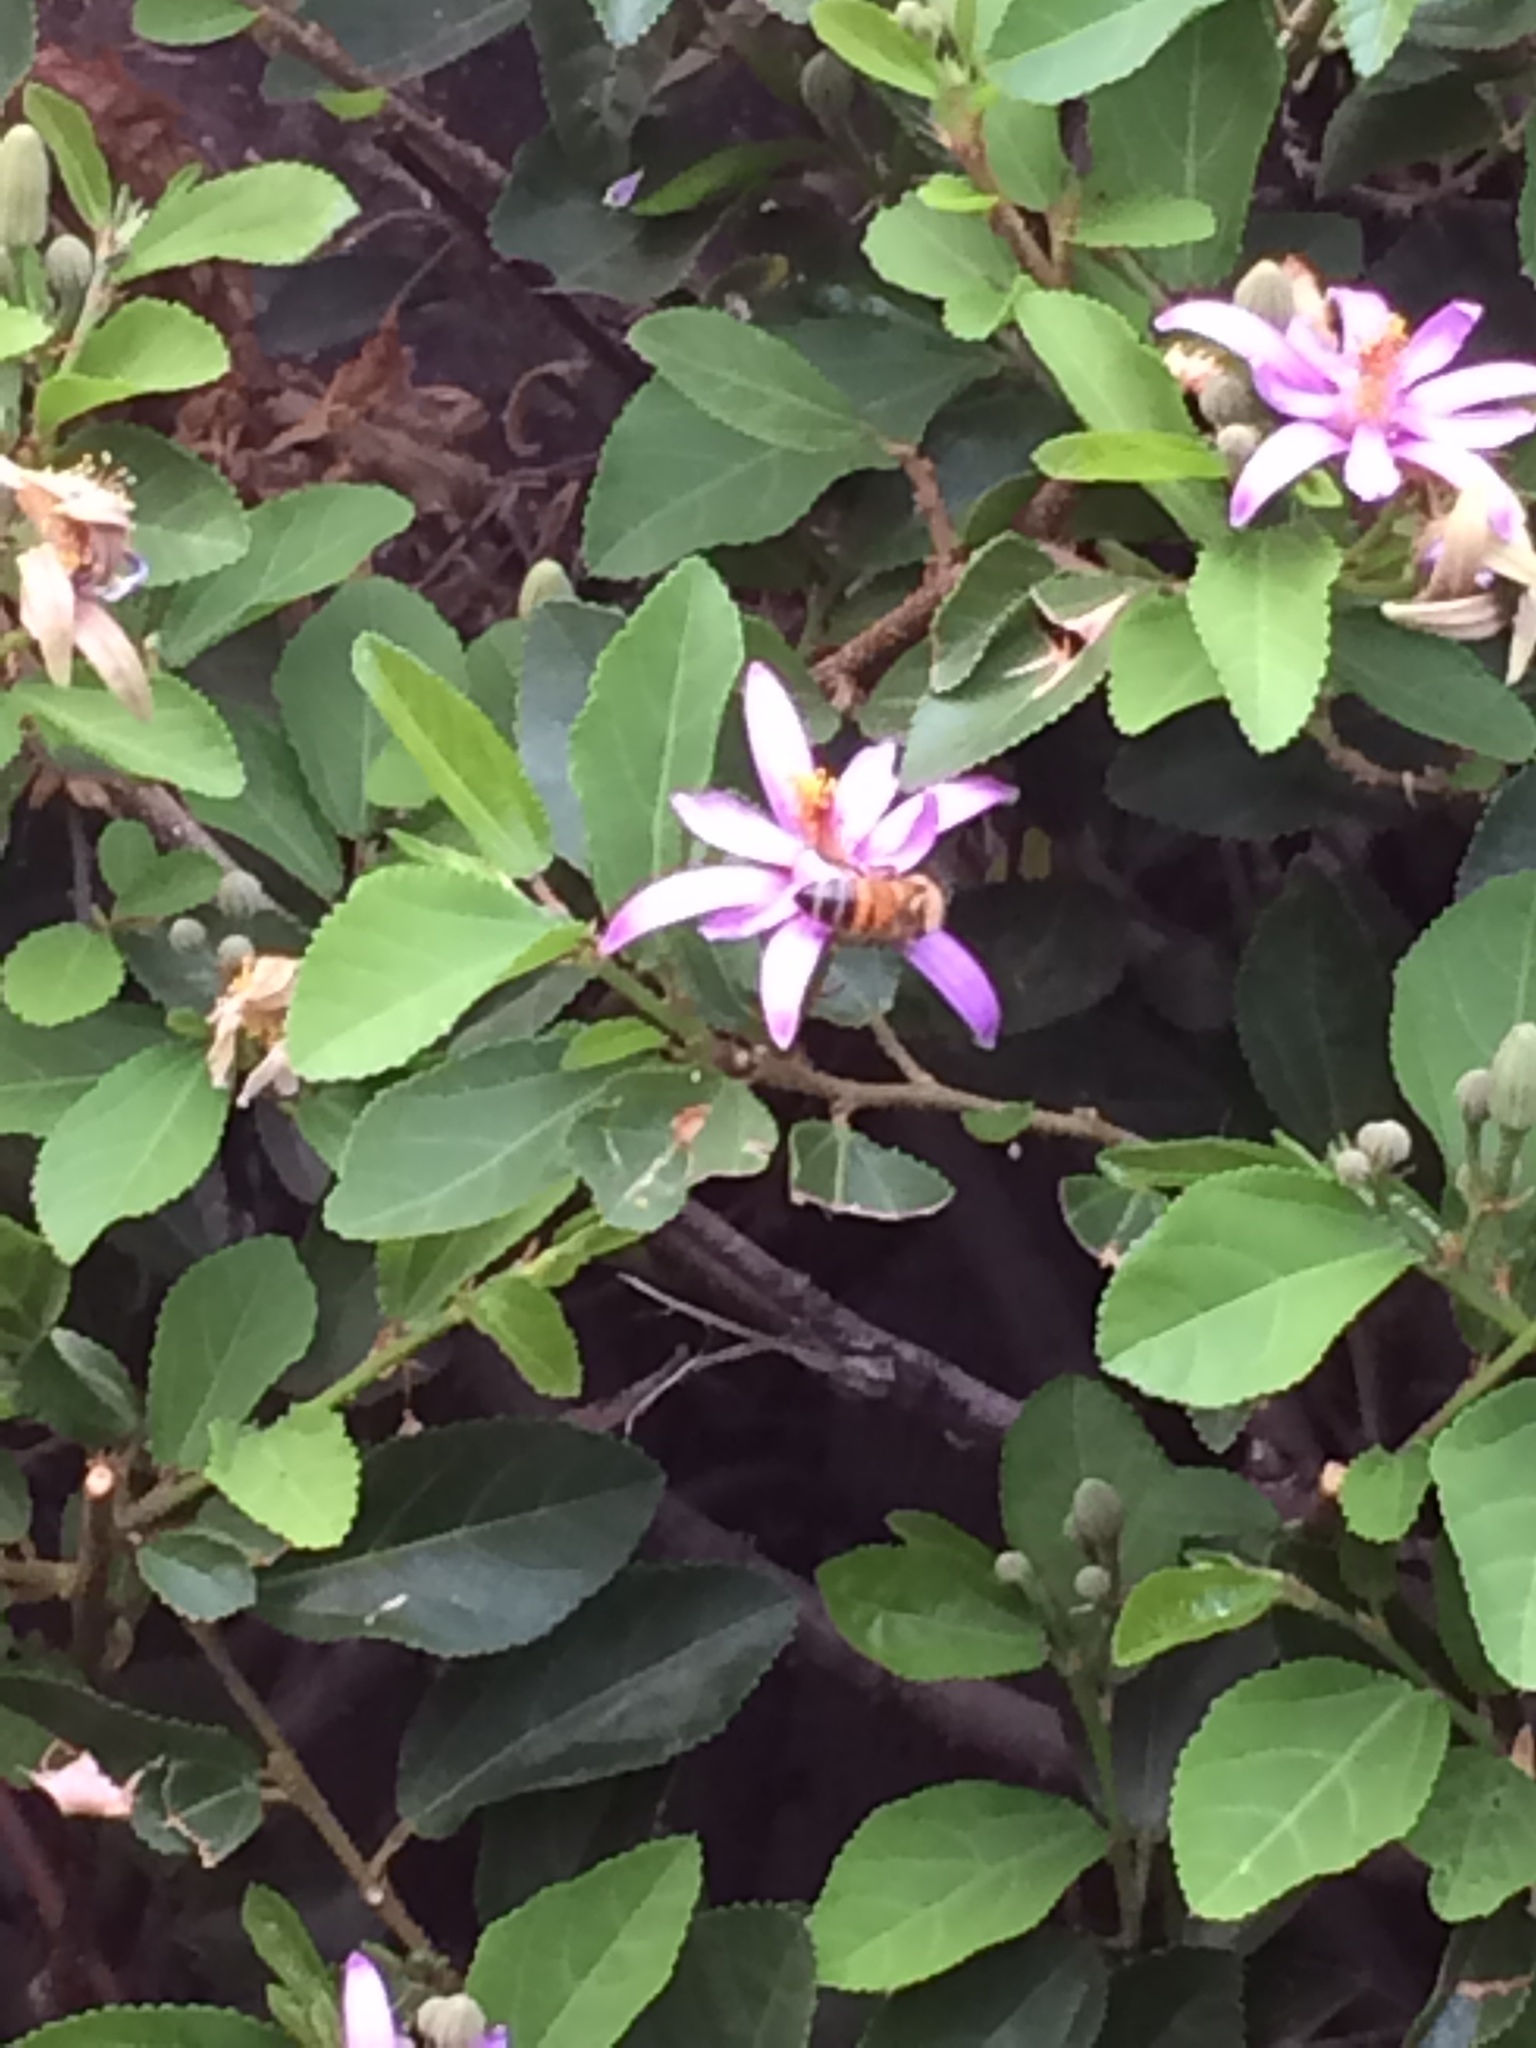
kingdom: Animalia
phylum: Arthropoda
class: Insecta
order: Hymenoptera
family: Apidae
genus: Apis
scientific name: Apis mellifera
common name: Honey bee
